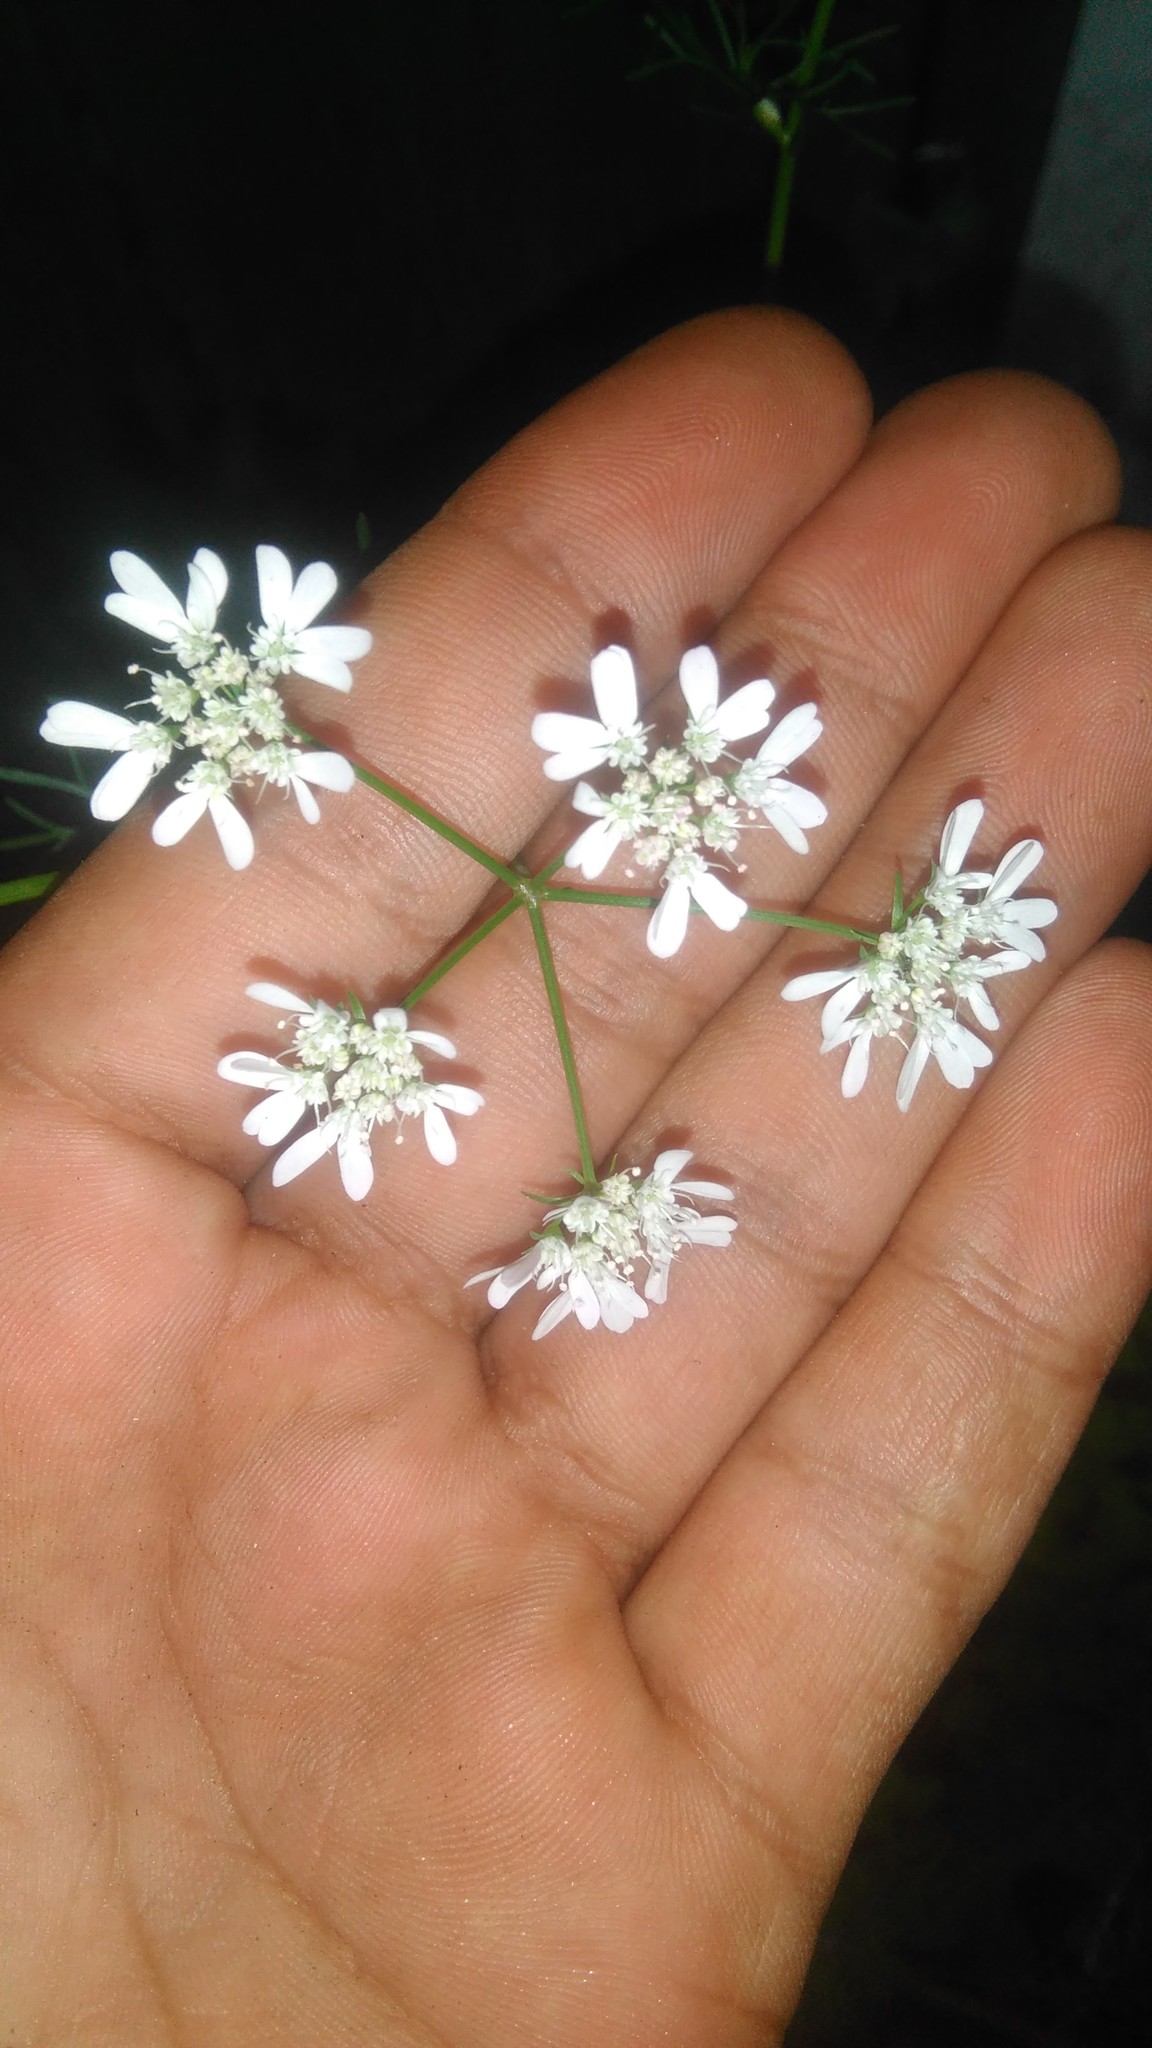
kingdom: Plantae
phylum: Tracheophyta
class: Magnoliopsida
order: Apiales
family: Apiaceae
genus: Coriandrum
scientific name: Coriandrum sativum
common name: Coriander
